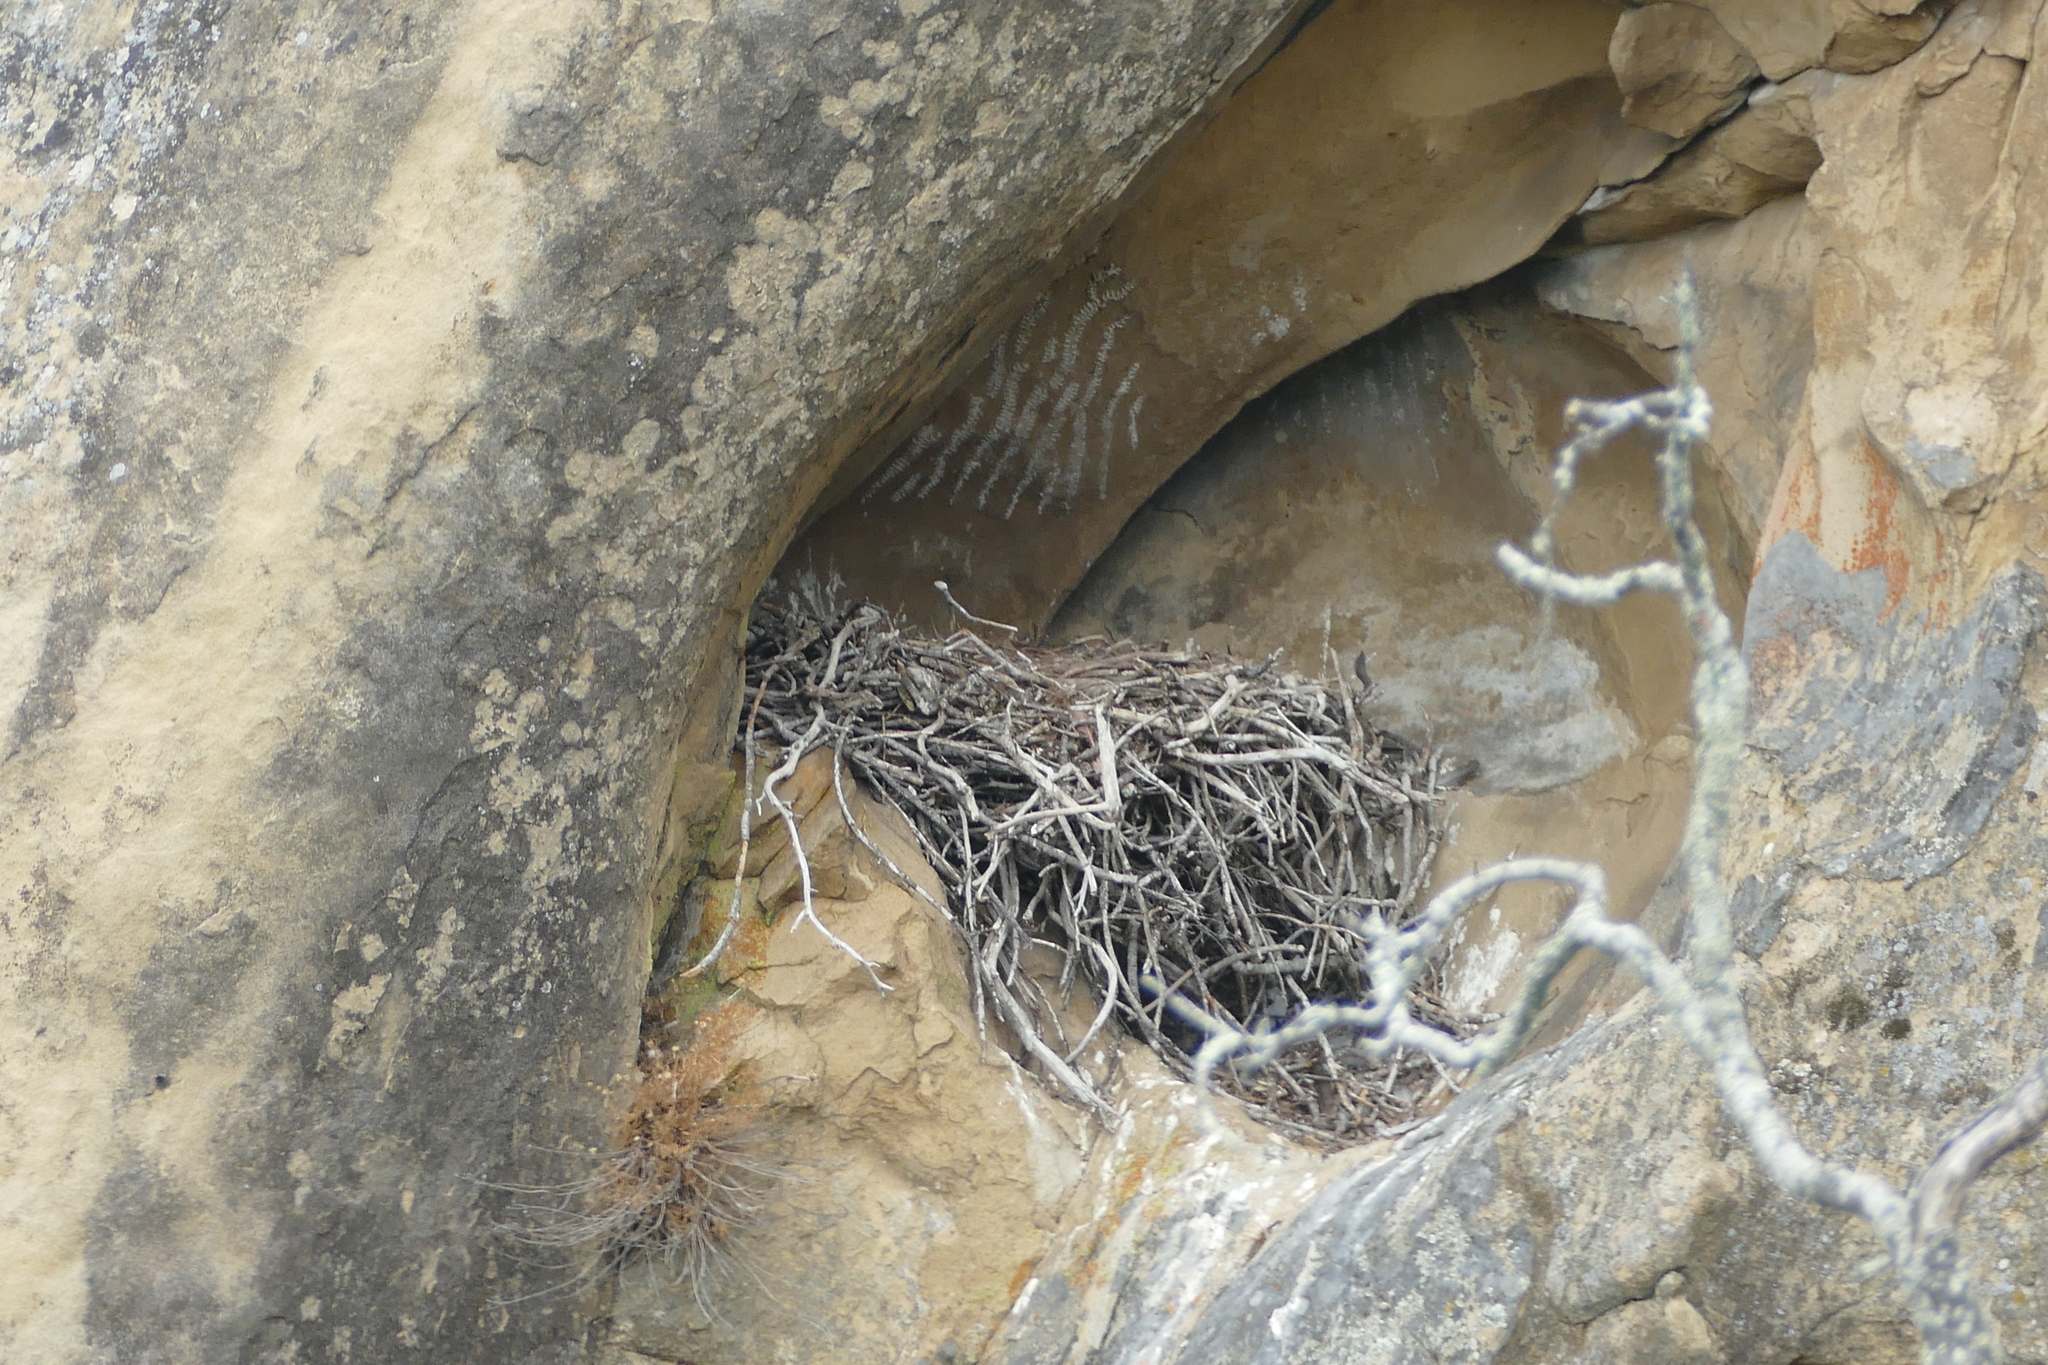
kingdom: Animalia
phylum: Chordata
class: Aves
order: Passeriformes
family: Corvidae
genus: Corvus
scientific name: Corvus corax
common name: Common raven
